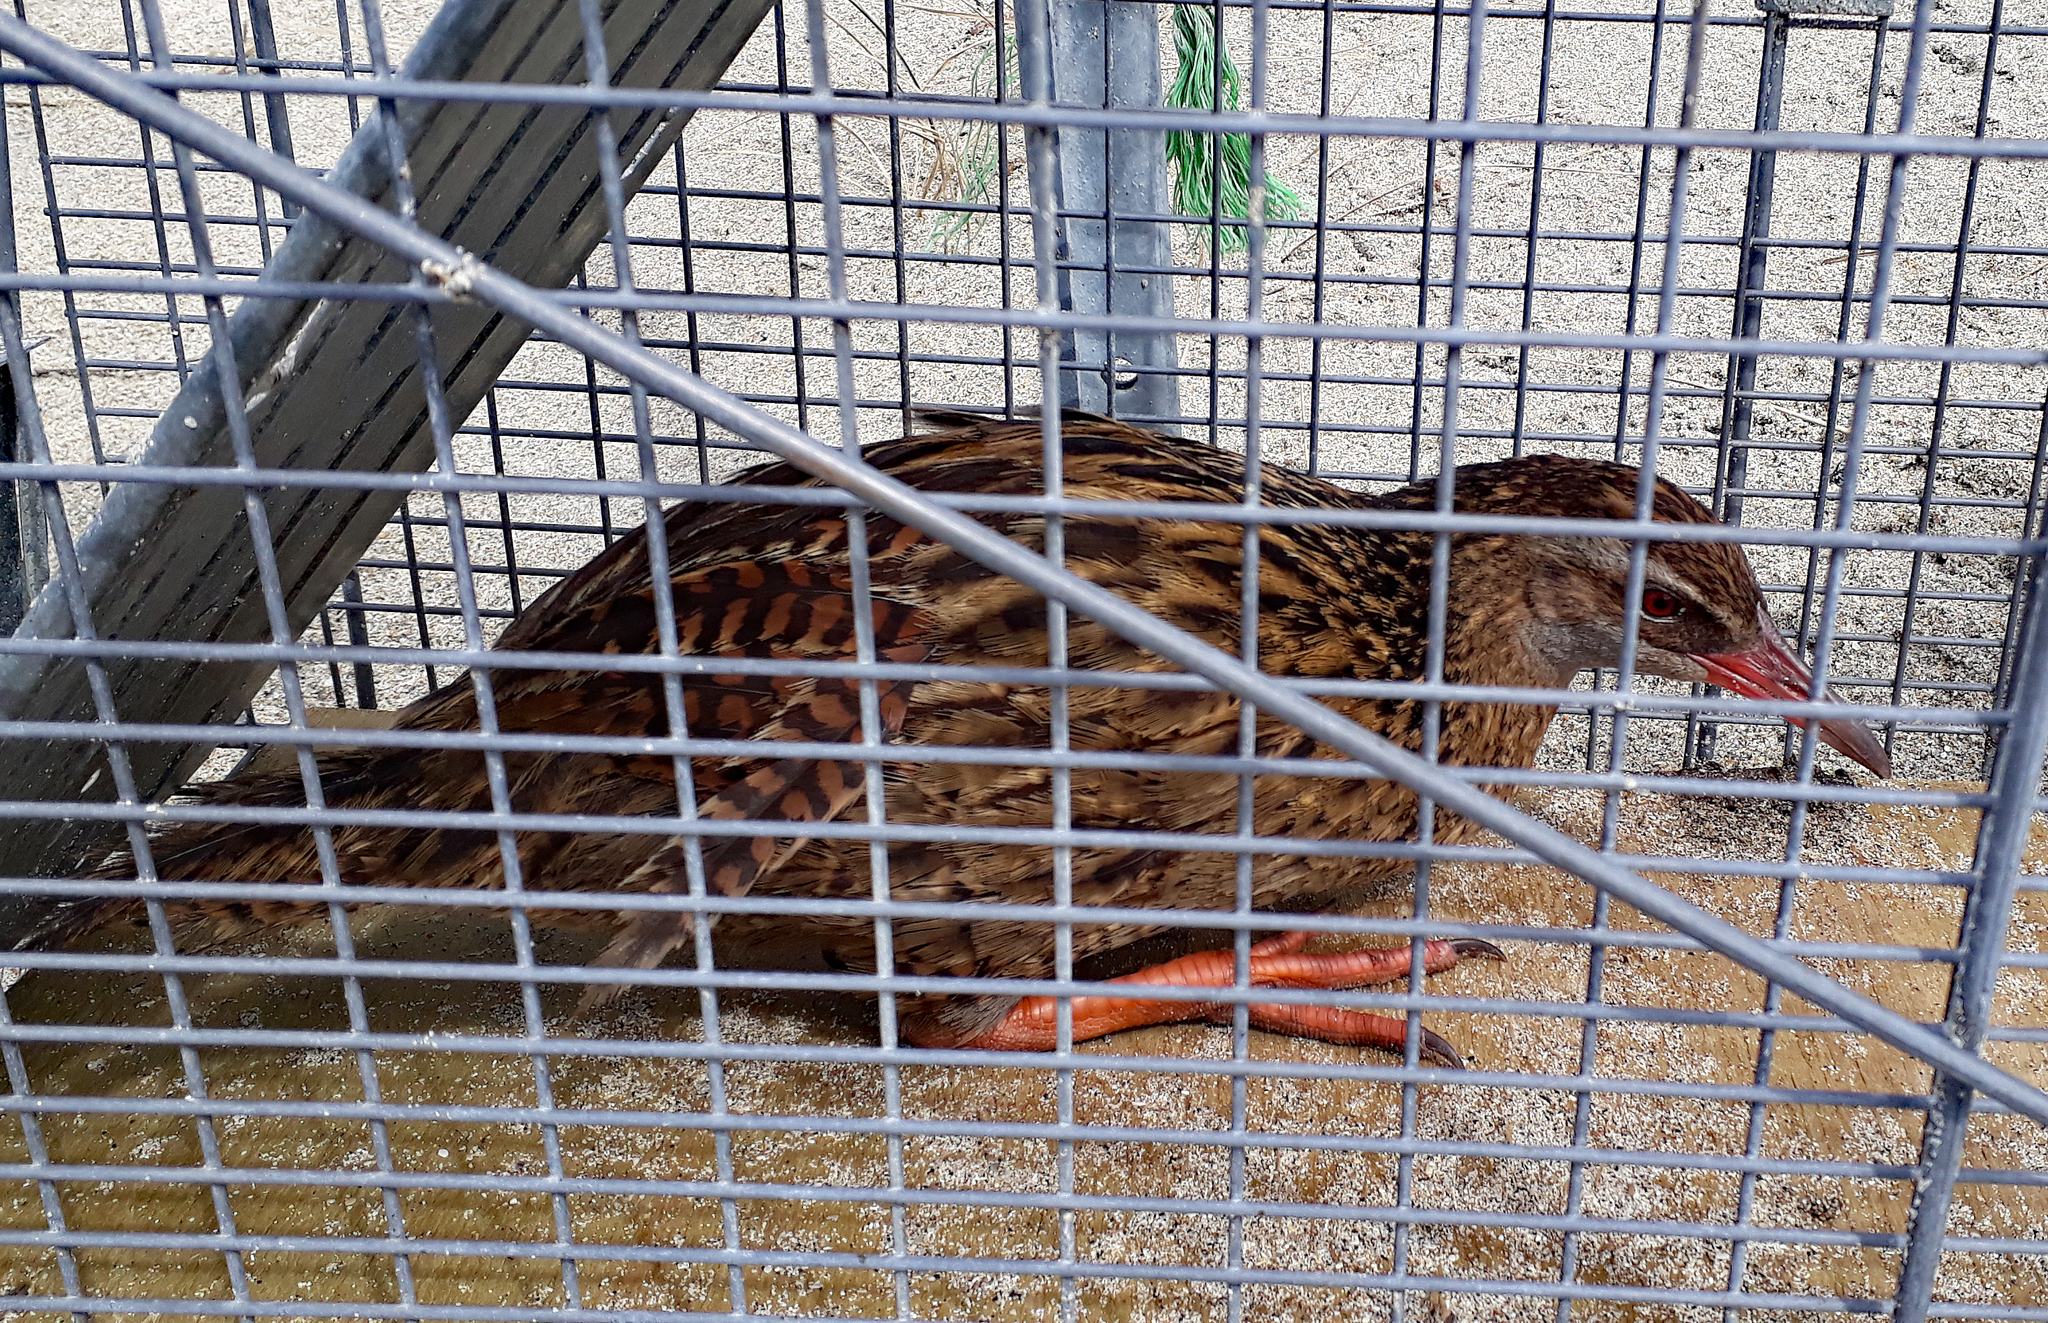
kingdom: Animalia
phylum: Chordata
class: Aves
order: Gruiformes
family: Rallidae
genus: Gallirallus
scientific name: Gallirallus australis
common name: Weka
